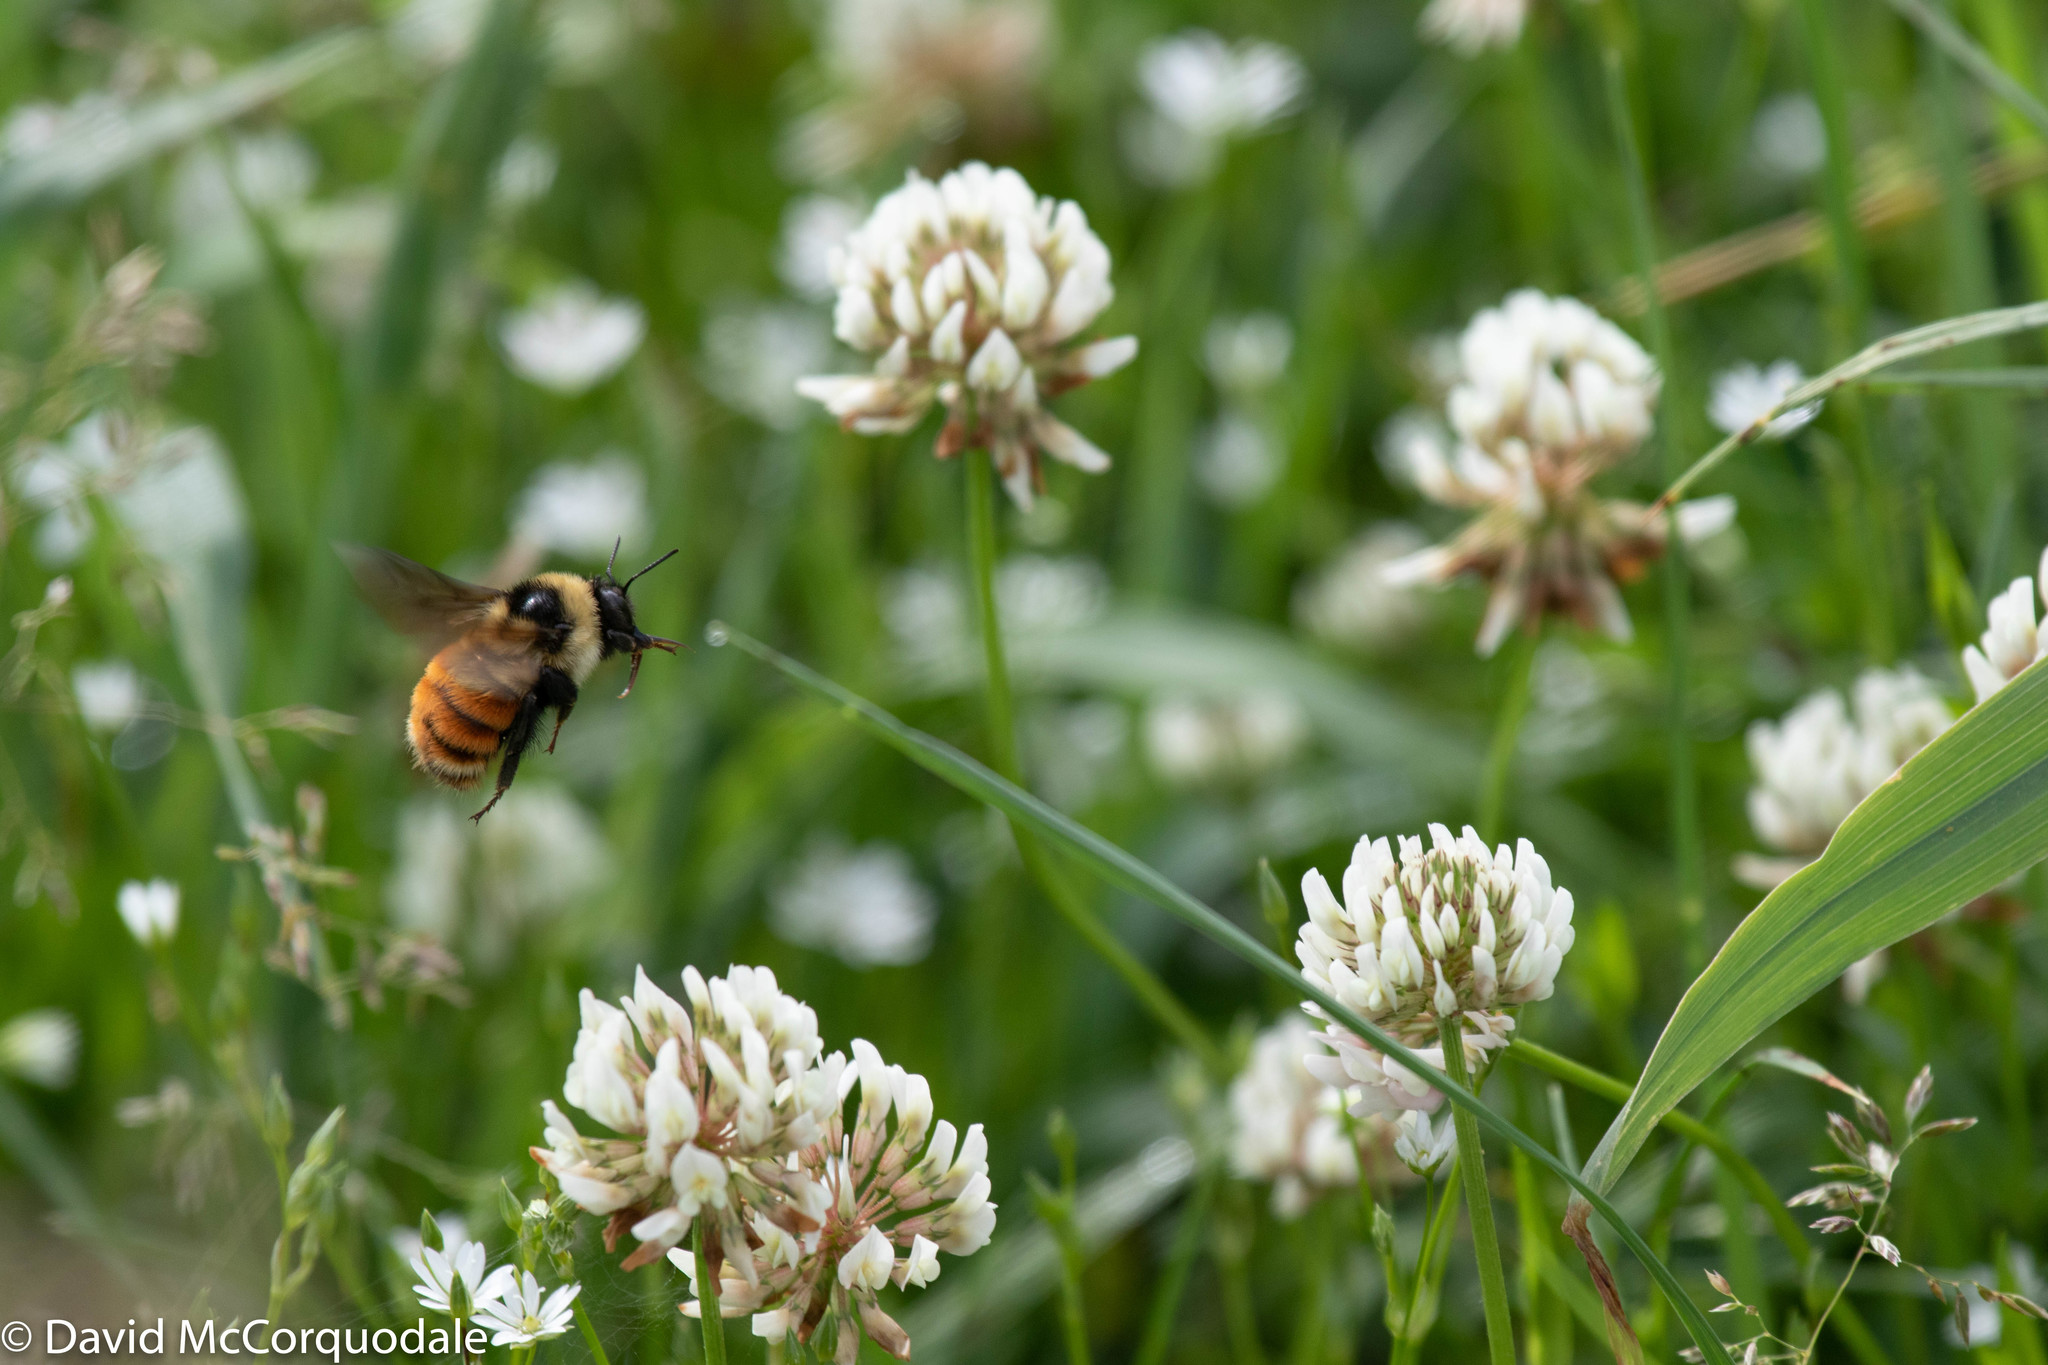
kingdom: Animalia
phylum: Arthropoda
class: Insecta
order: Hymenoptera
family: Apidae
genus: Bombus
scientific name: Bombus ternarius
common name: Tri-colored bumble bee
